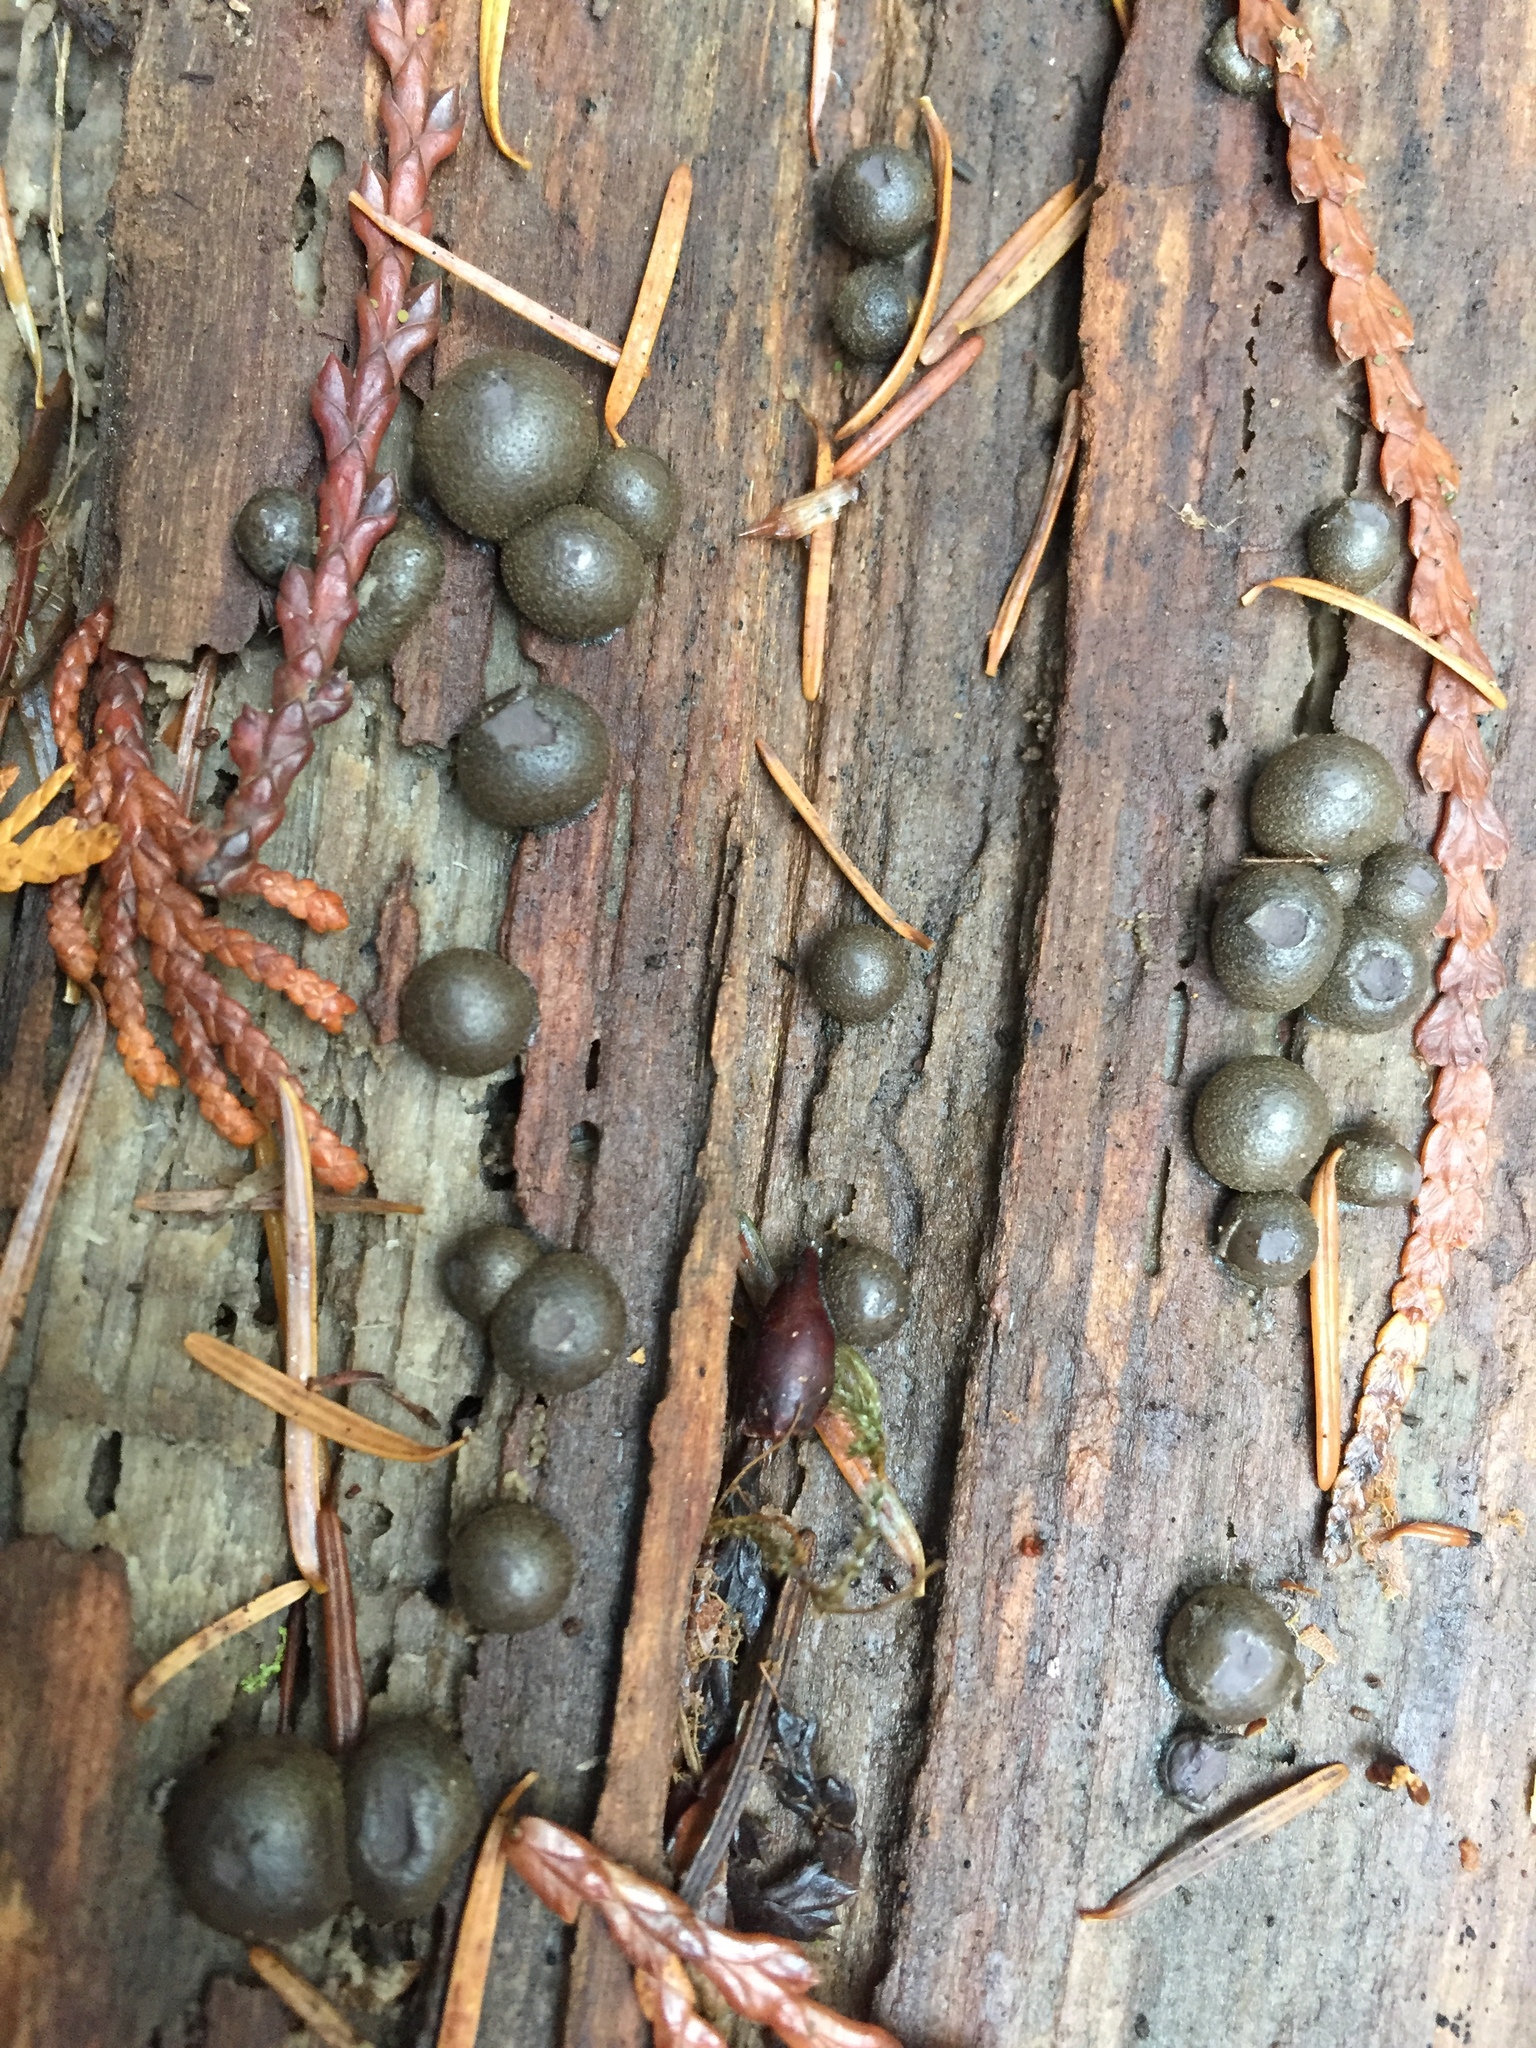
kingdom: Protozoa
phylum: Mycetozoa
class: Myxomycetes
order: Cribrariales
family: Tubiferaceae
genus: Lycogala
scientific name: Lycogala epidendrum
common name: Wolf's milk
